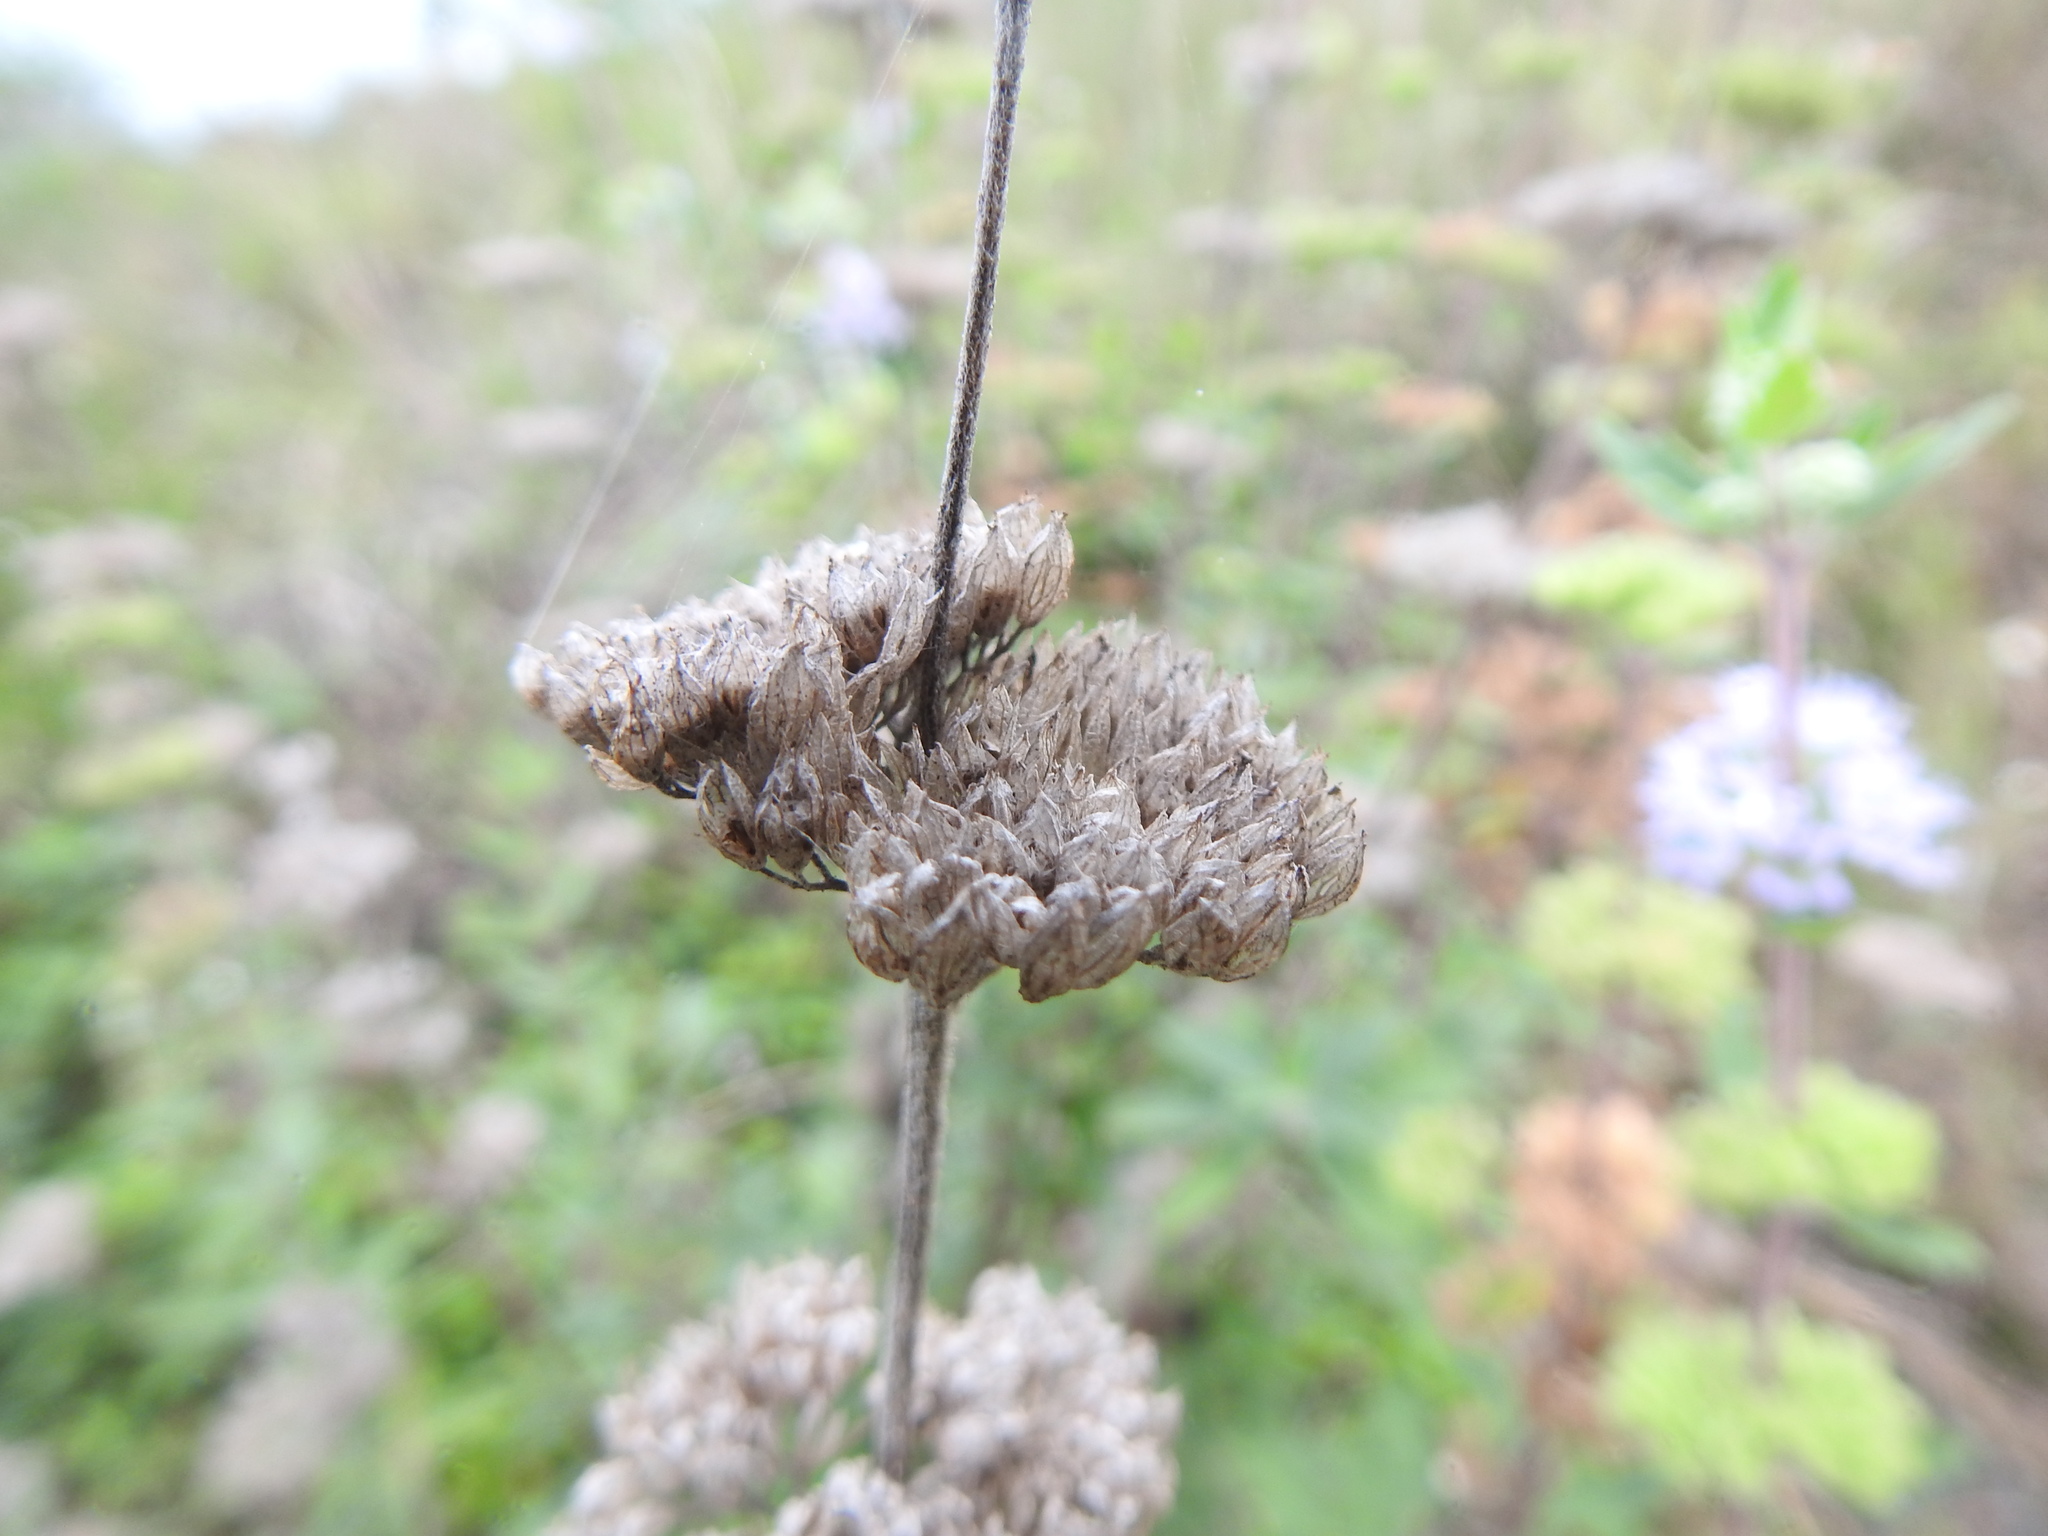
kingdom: Plantae
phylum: Tracheophyta
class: Magnoliopsida
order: Lamiales
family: Lamiaceae
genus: Caryopteris
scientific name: Caryopteris incana
